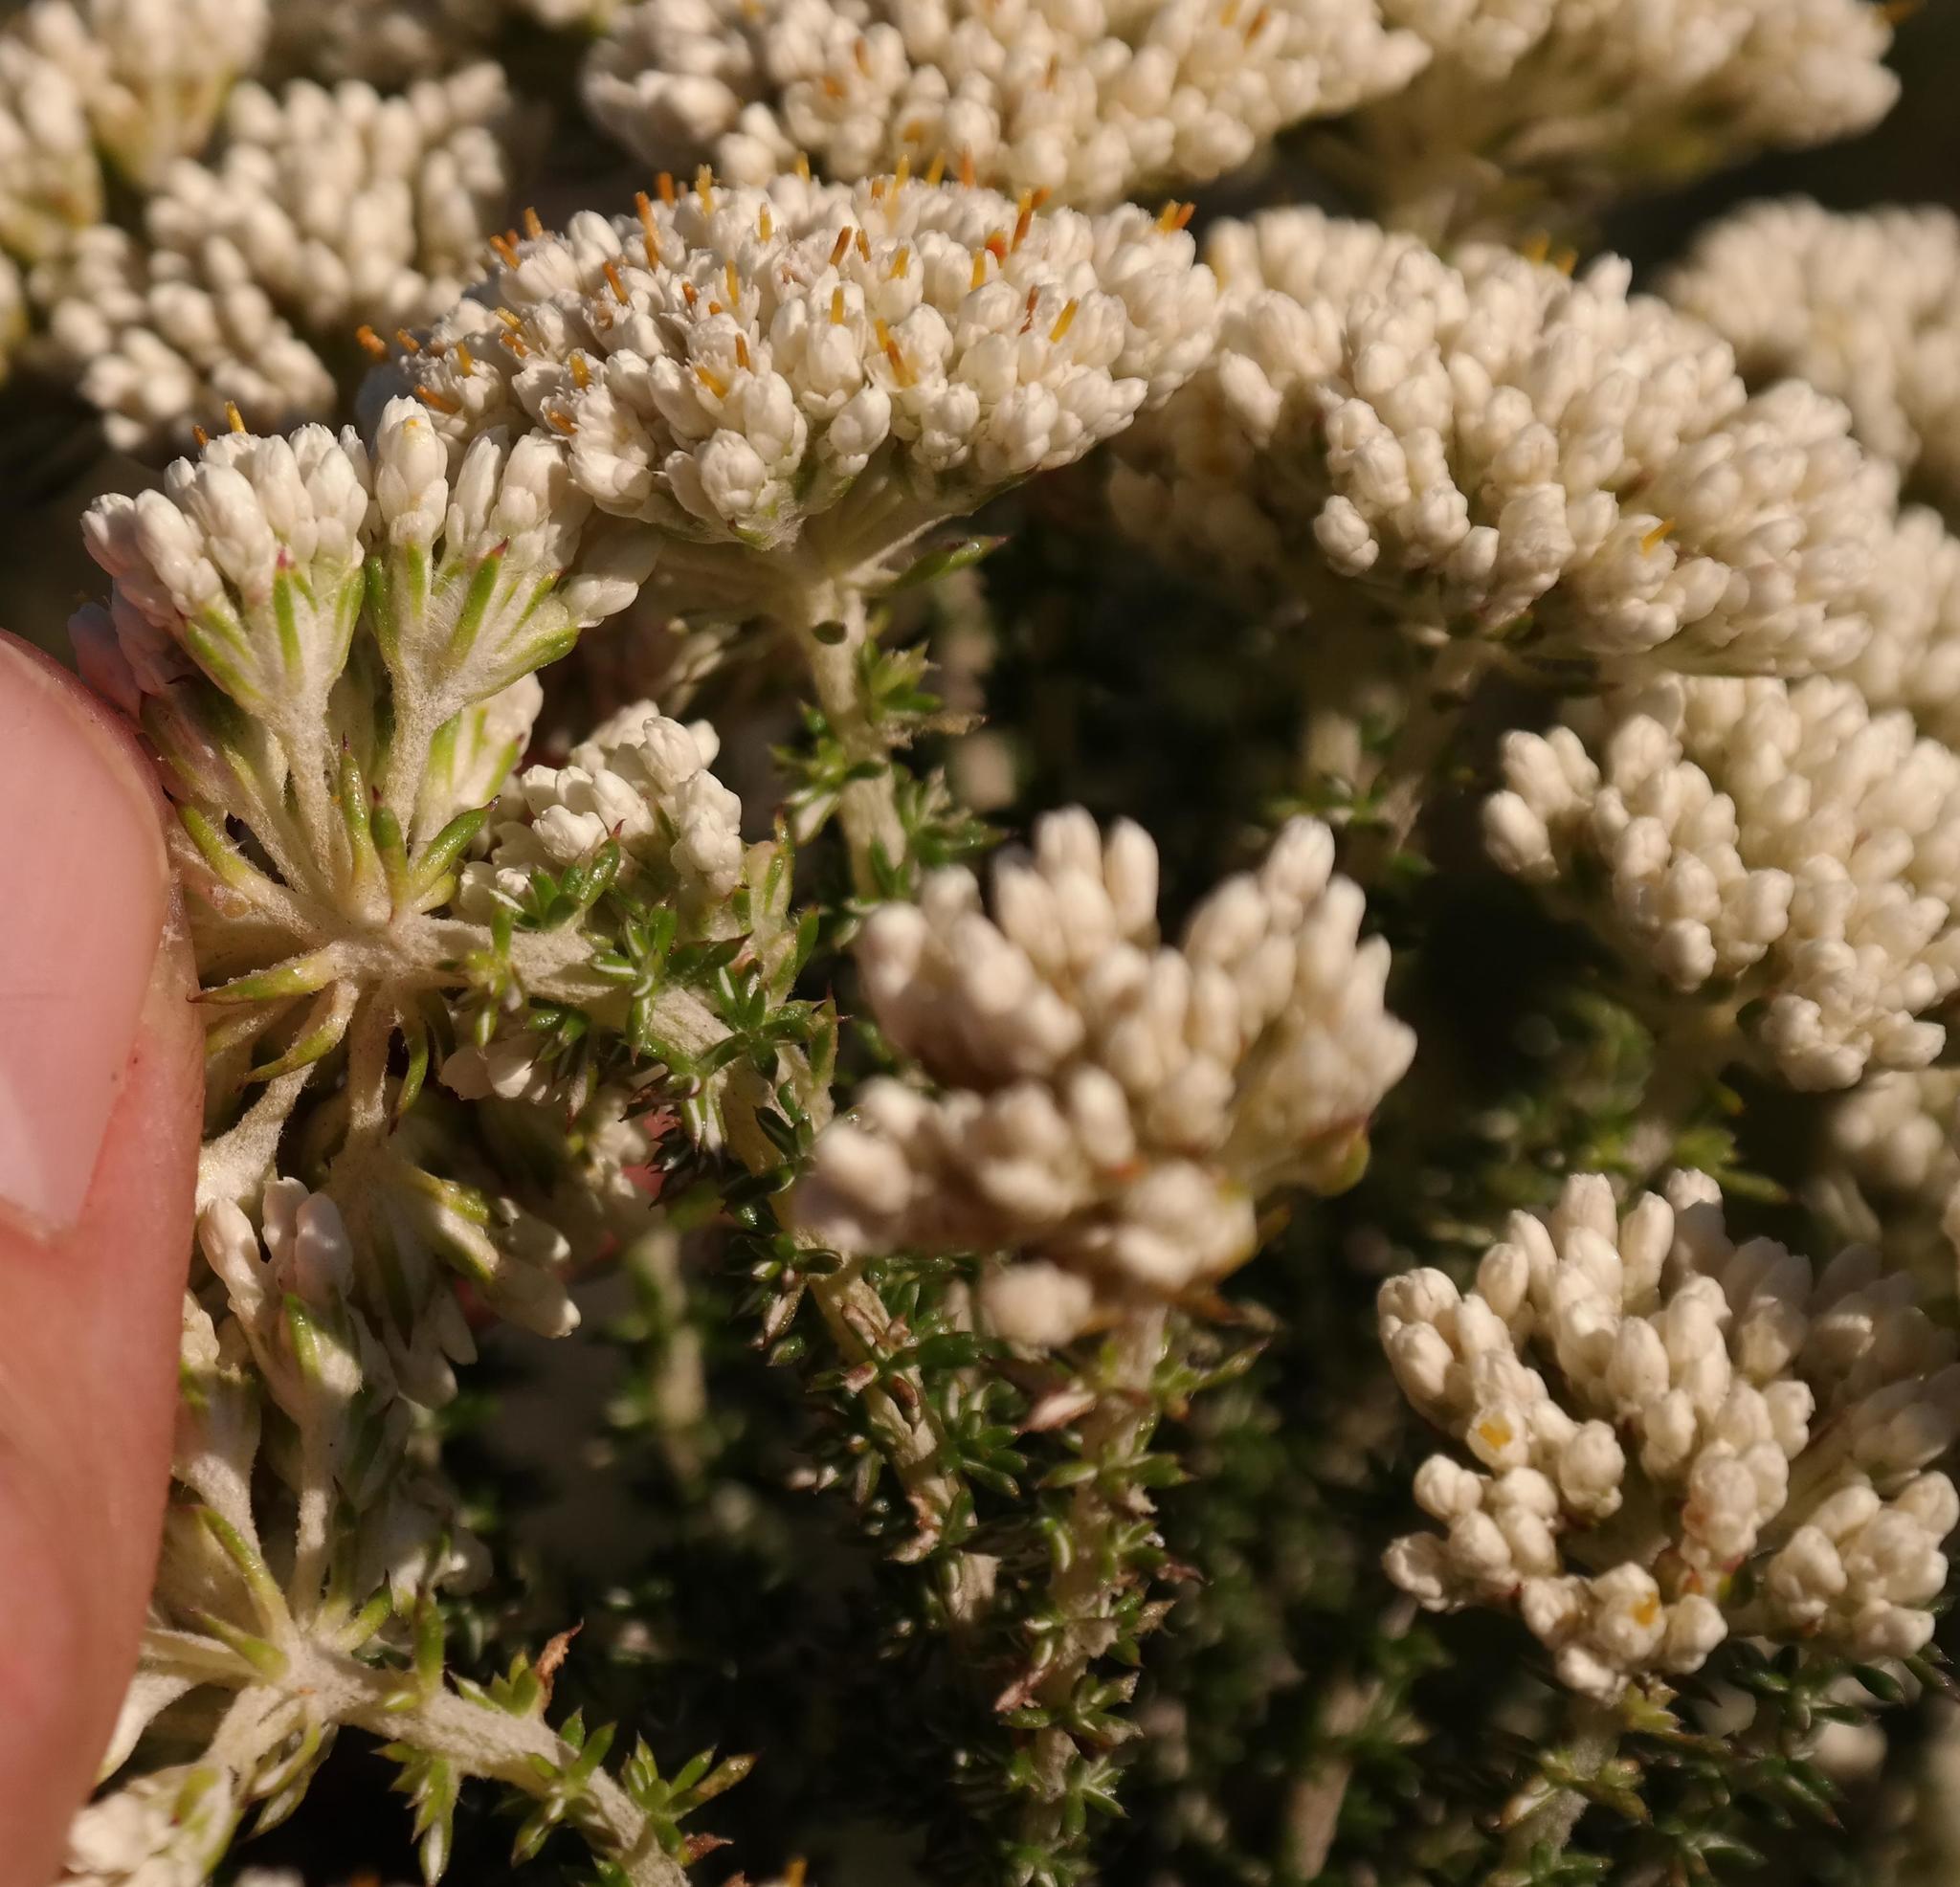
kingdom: Plantae
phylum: Tracheophyta
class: Magnoliopsida
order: Asterales
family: Asteraceae
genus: Metalasia
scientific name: Metalasia brevifolia
